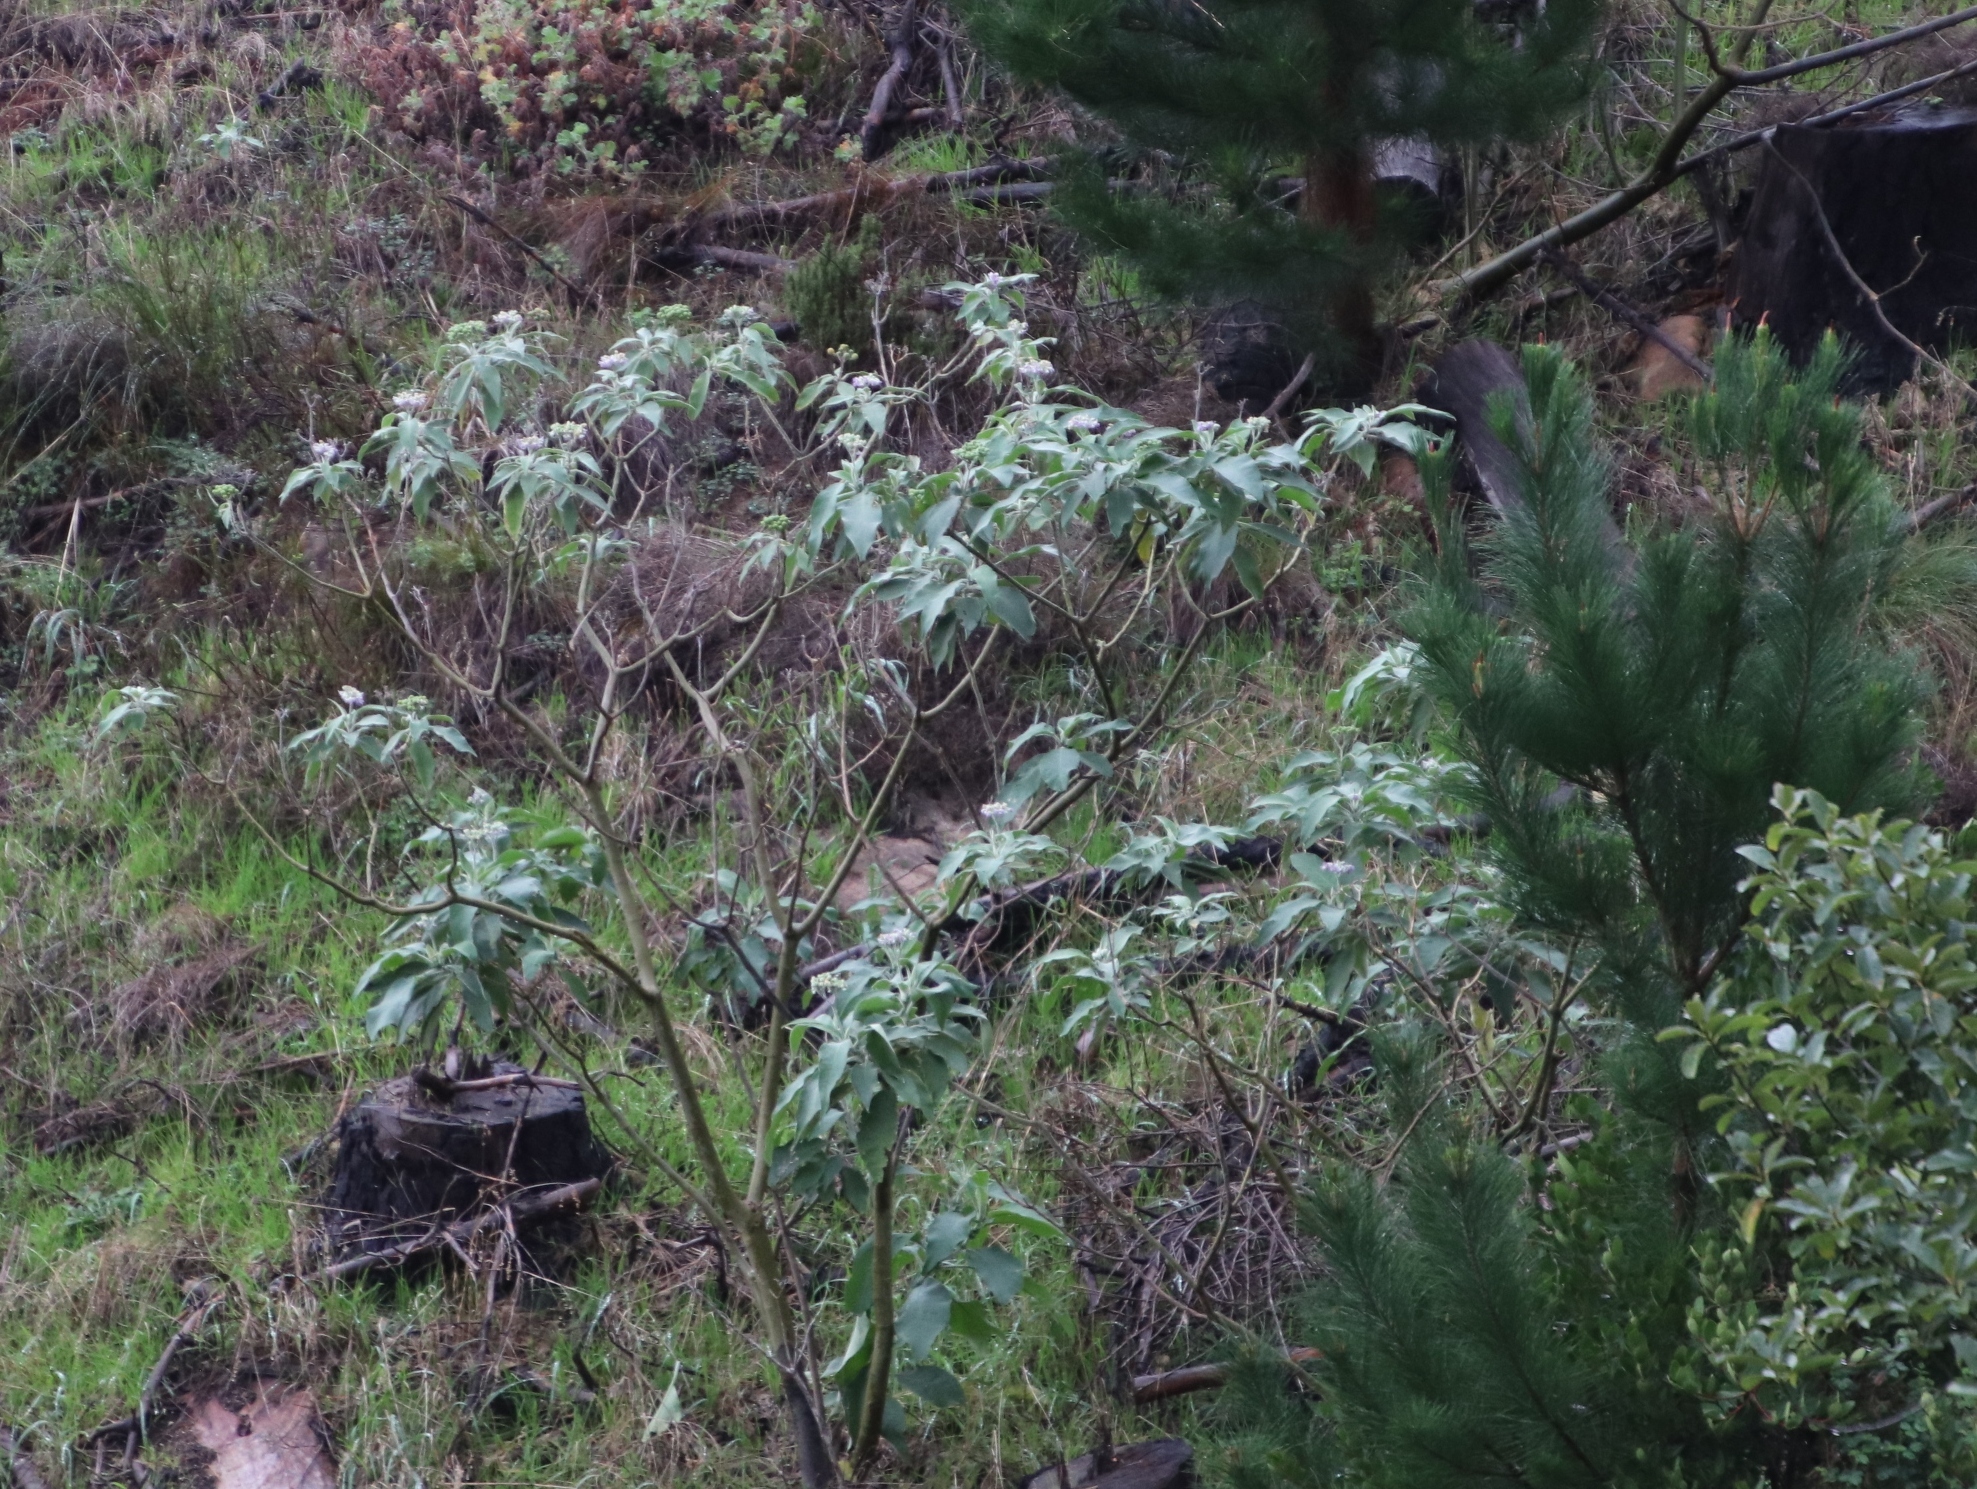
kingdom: Plantae
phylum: Tracheophyta
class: Magnoliopsida
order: Solanales
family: Solanaceae
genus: Solanum
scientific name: Solanum mauritianum
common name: Earleaf nightshade
